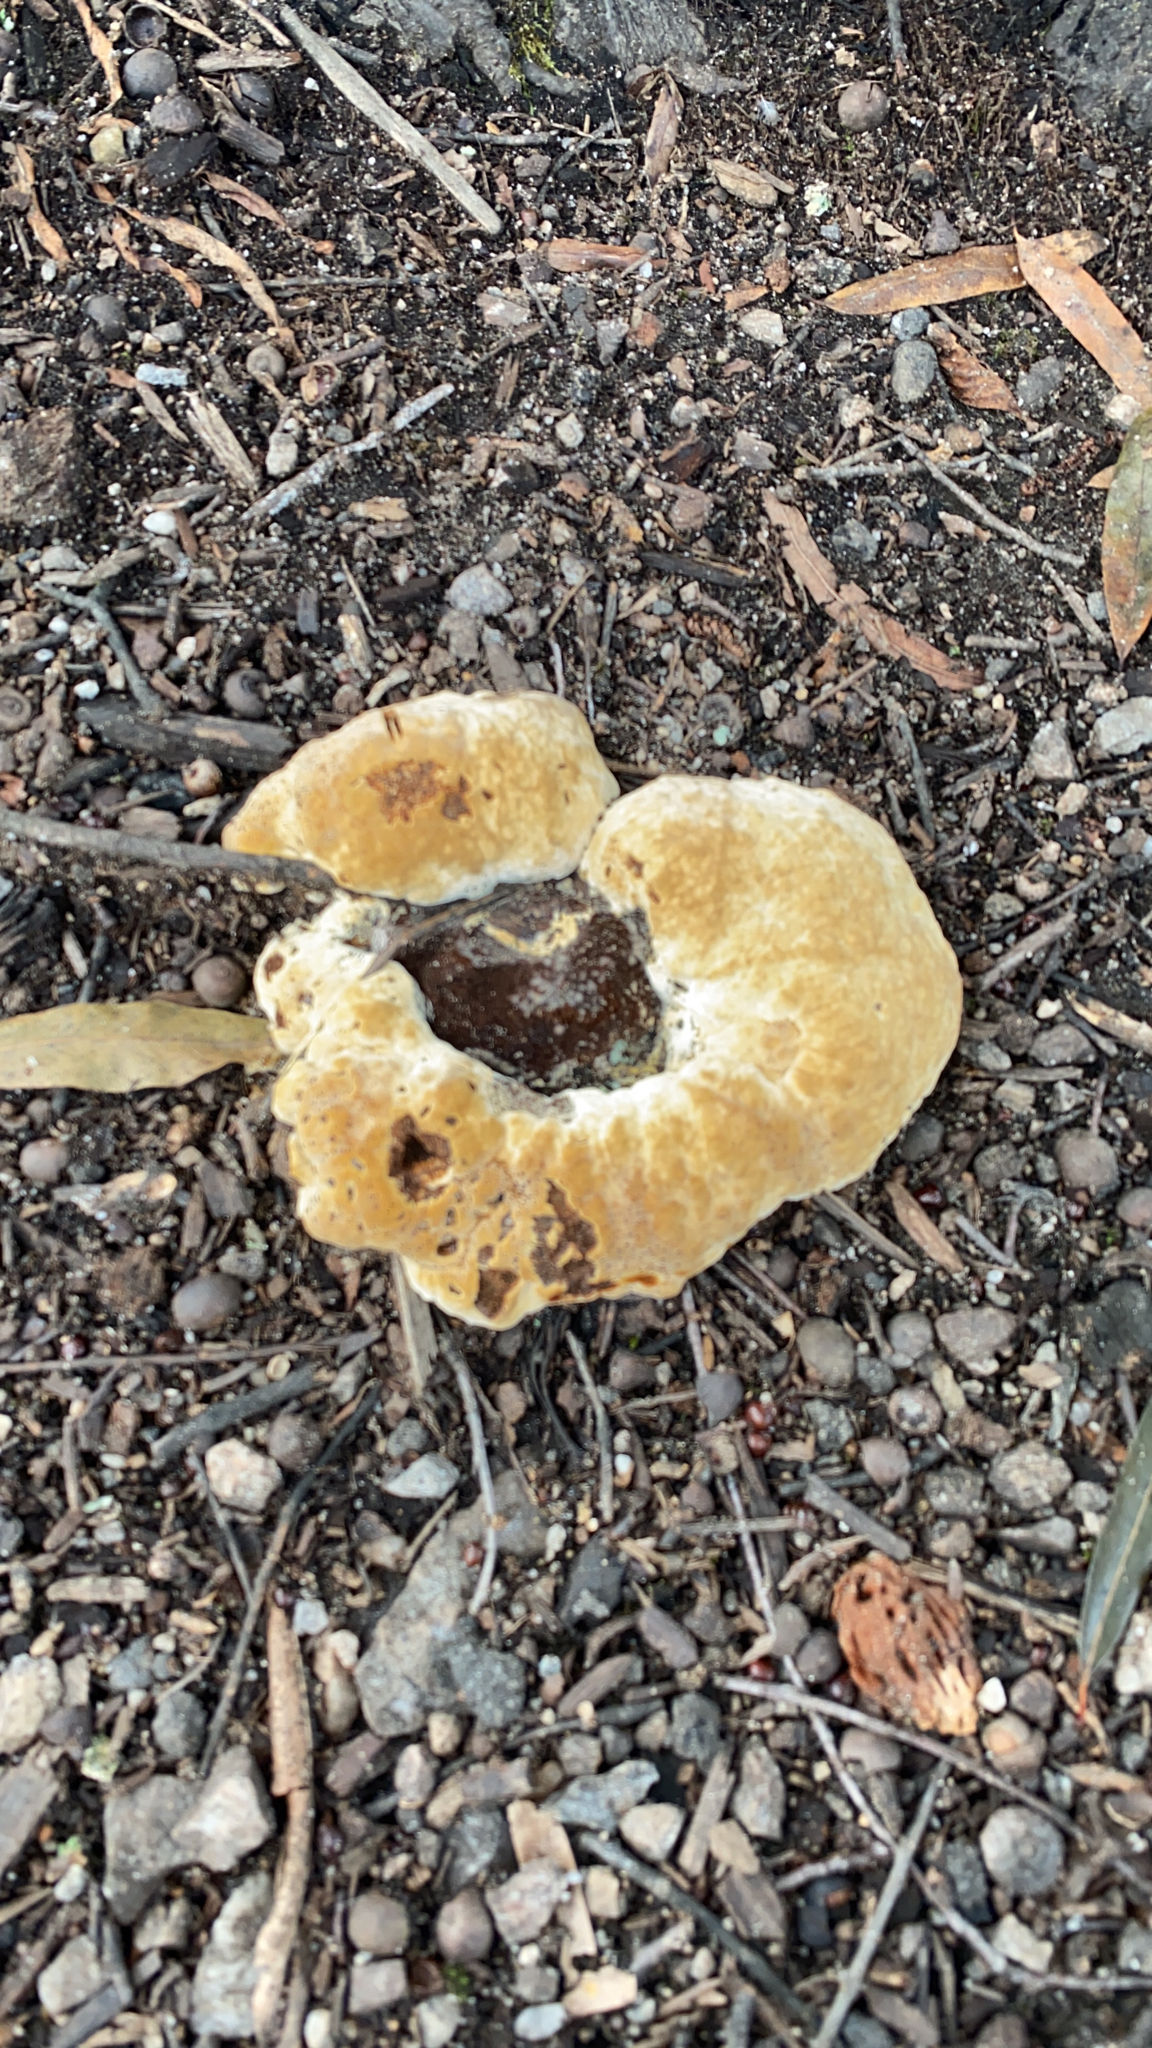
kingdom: Fungi
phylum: Basidiomycota
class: Agaricomycetes
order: Hymenochaetales
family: Hymenochaetaceae
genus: Pseudoinonotus
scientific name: Pseudoinonotus dryadeus
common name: Oak bracket
